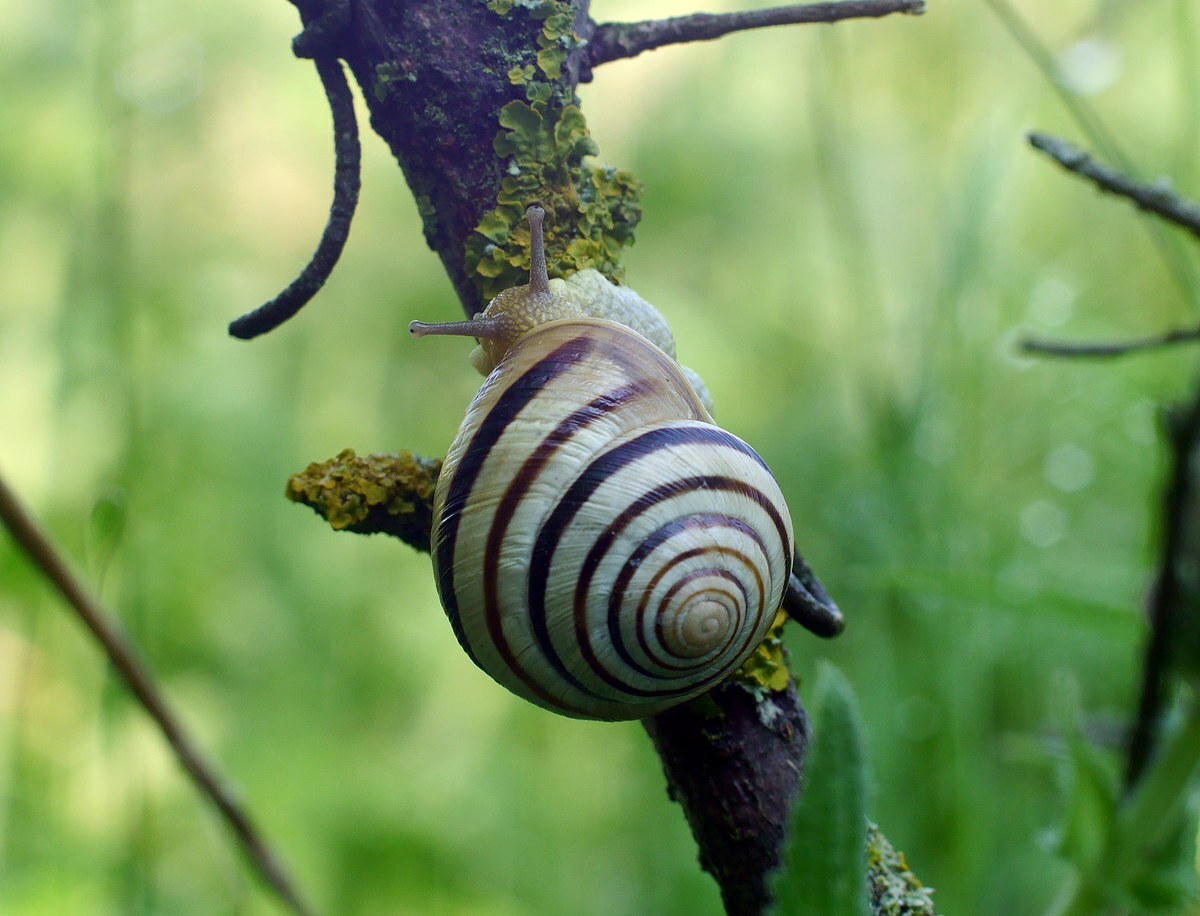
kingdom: Animalia
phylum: Mollusca
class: Gastropoda
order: Stylommatophora
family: Helicidae
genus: Caucasotachea
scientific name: Caucasotachea vindobonensis
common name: European helicid land snail
